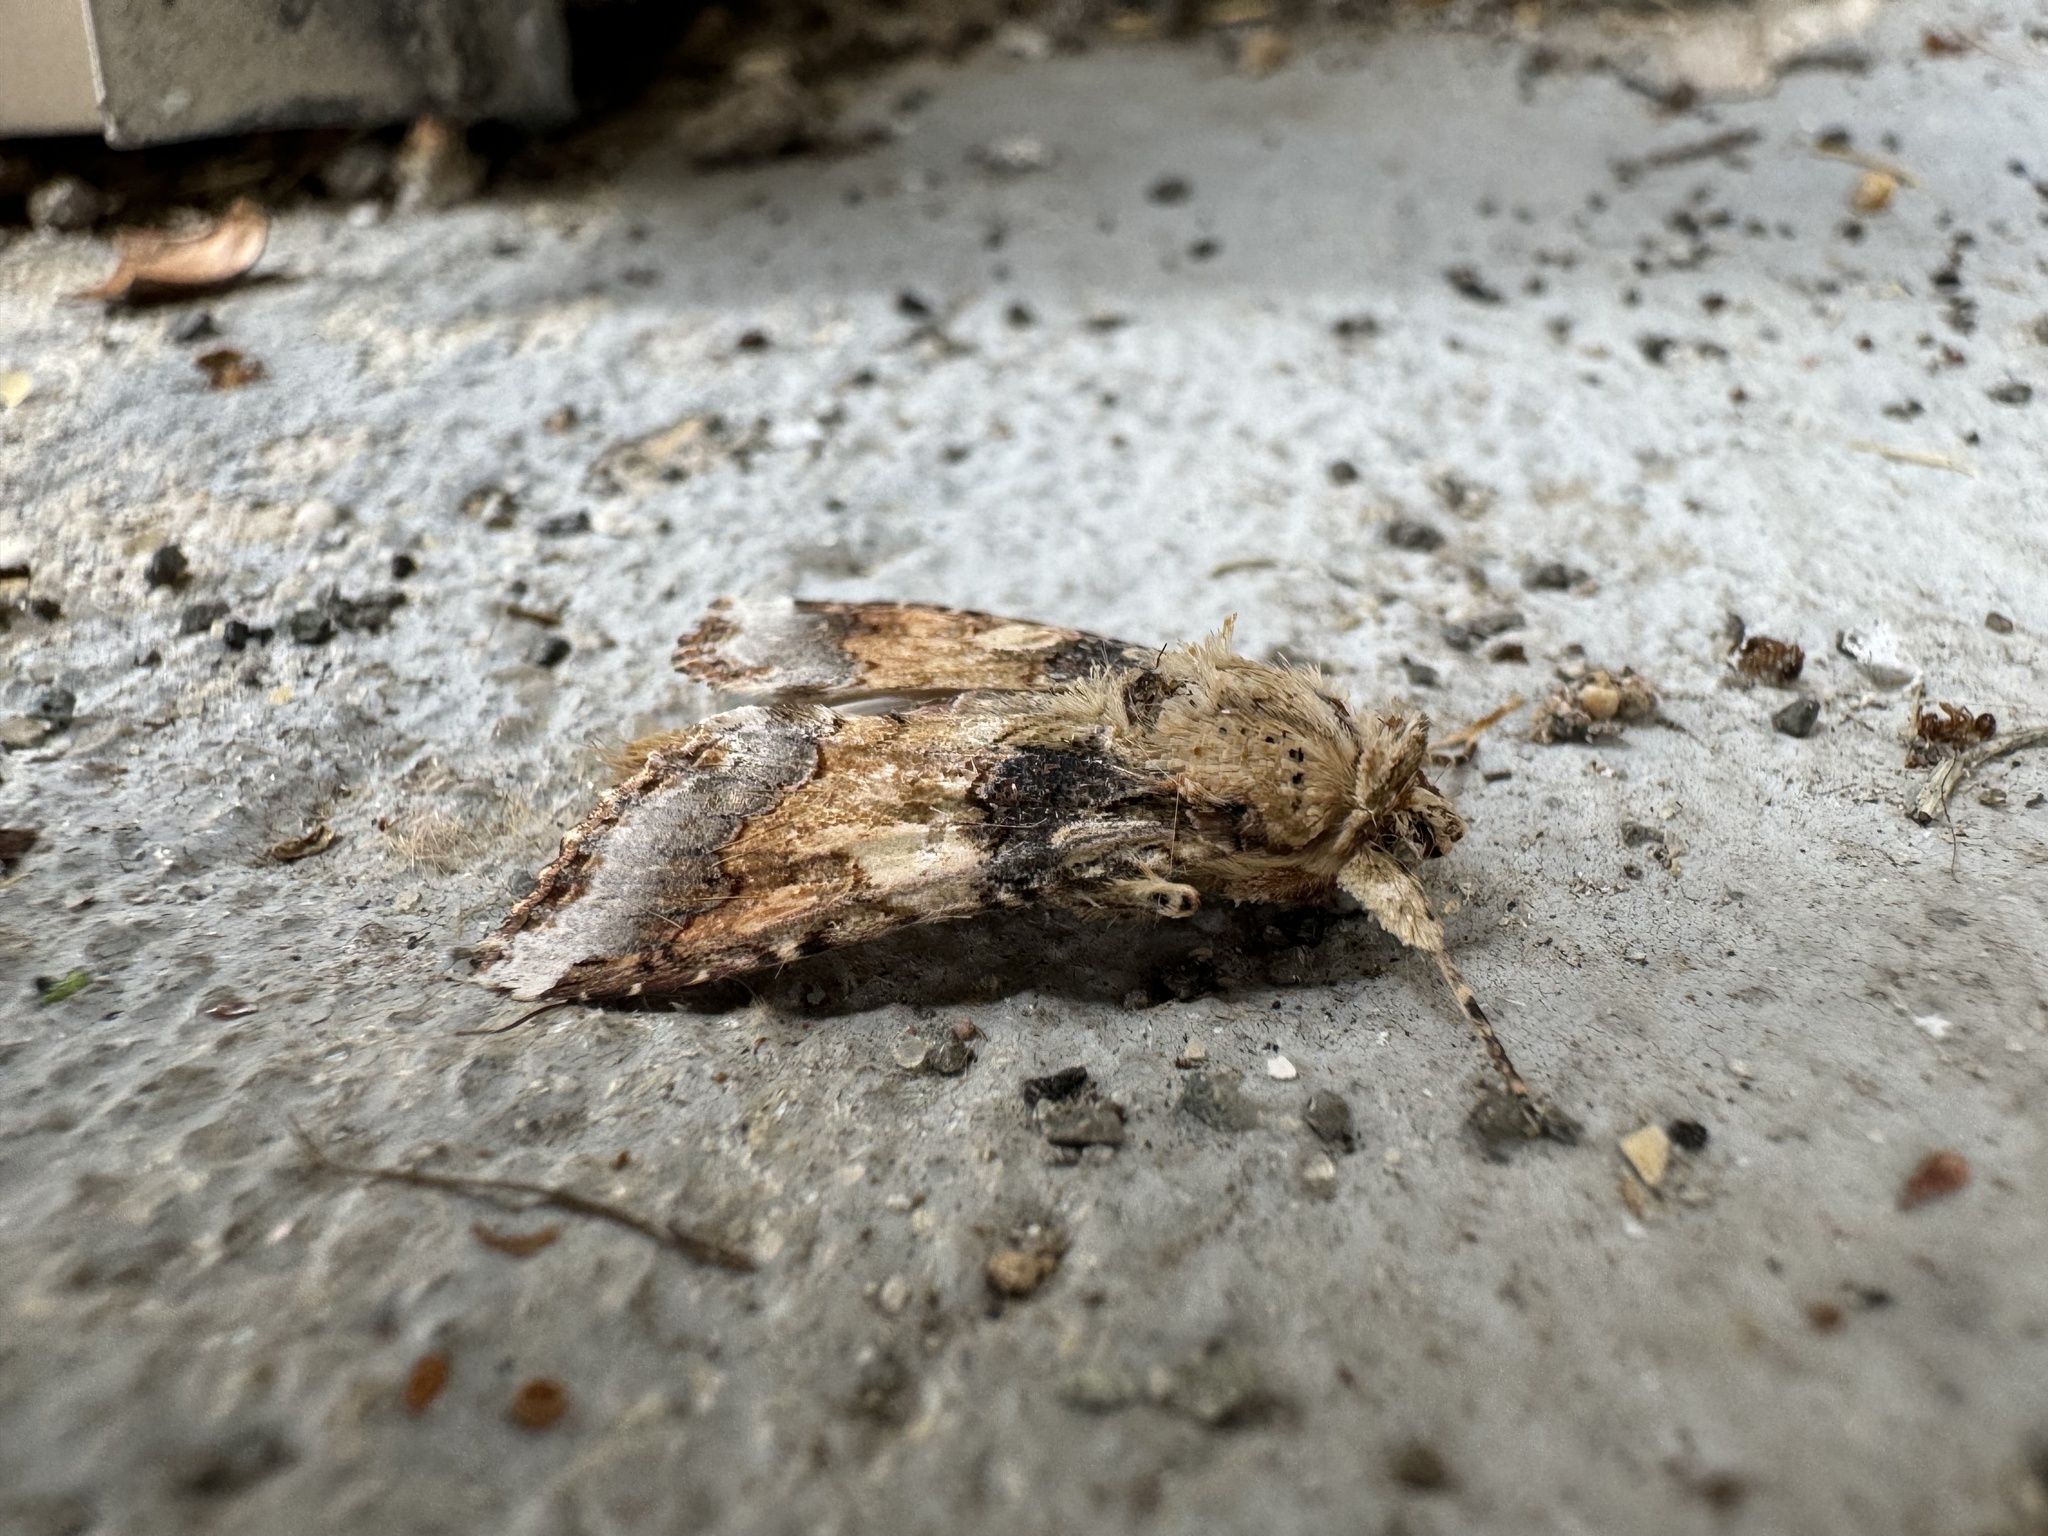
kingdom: Animalia
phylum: Arthropoda
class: Insecta
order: Lepidoptera
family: Noctuidae
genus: Spodoptera
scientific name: Spodoptera latifascia
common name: Velvet armyworm moth
